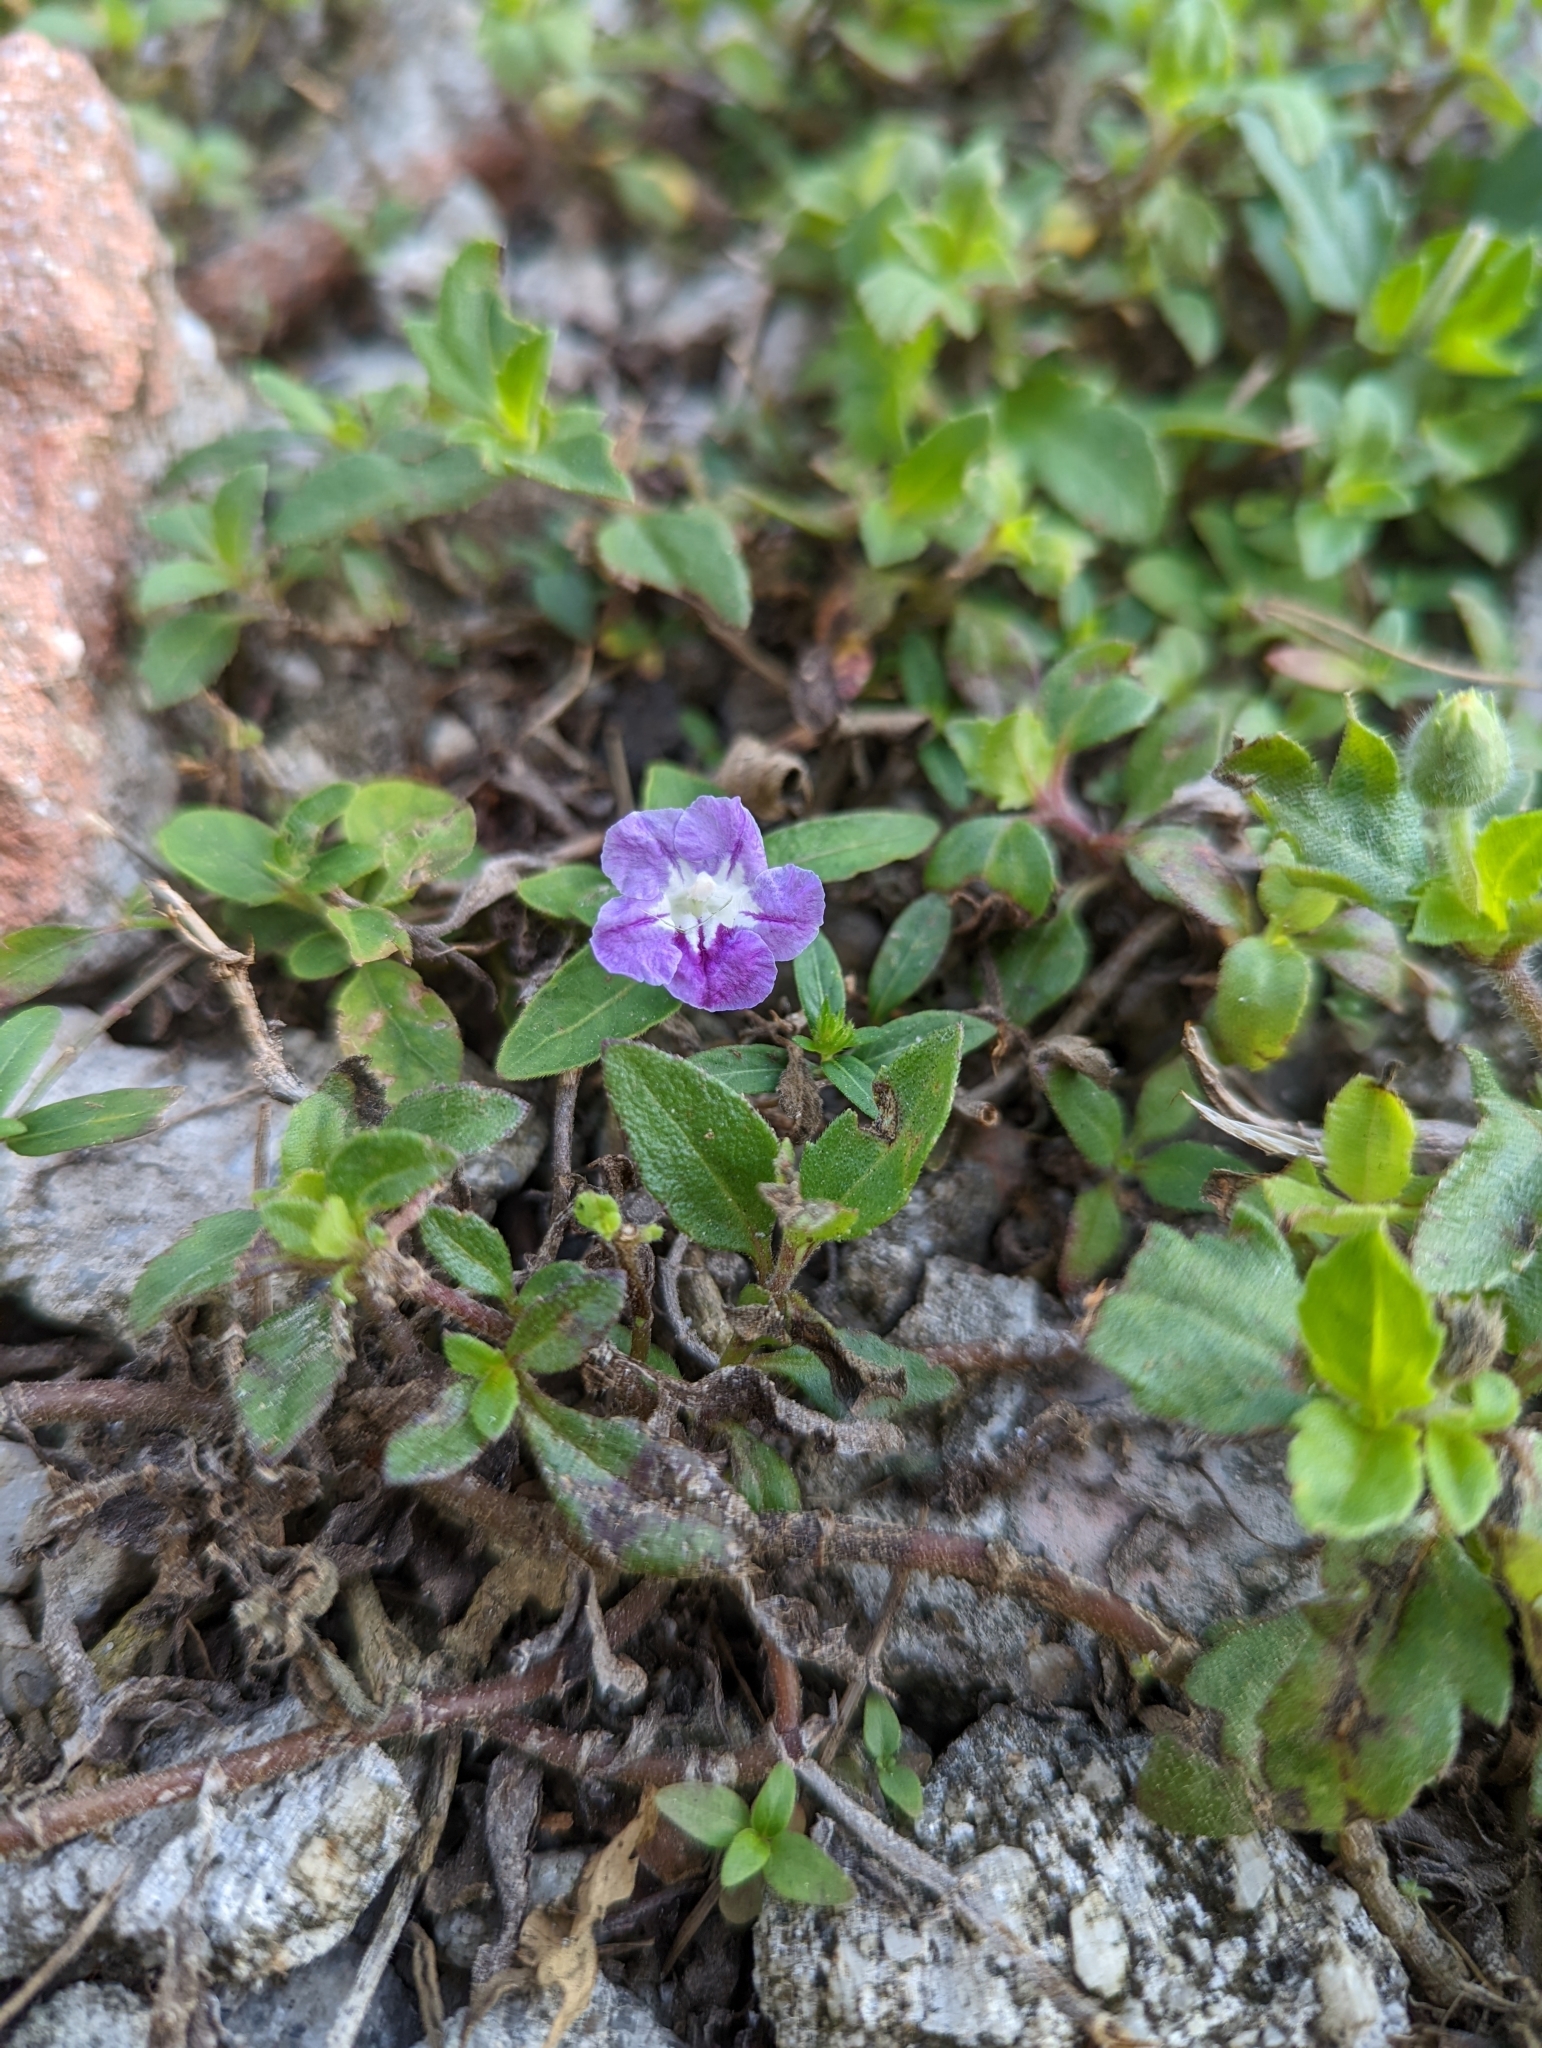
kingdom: Plantae
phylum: Tracheophyta
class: Magnoliopsida
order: Lamiales
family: Acanthaceae
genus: Ruellia
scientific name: Ruellia repens
